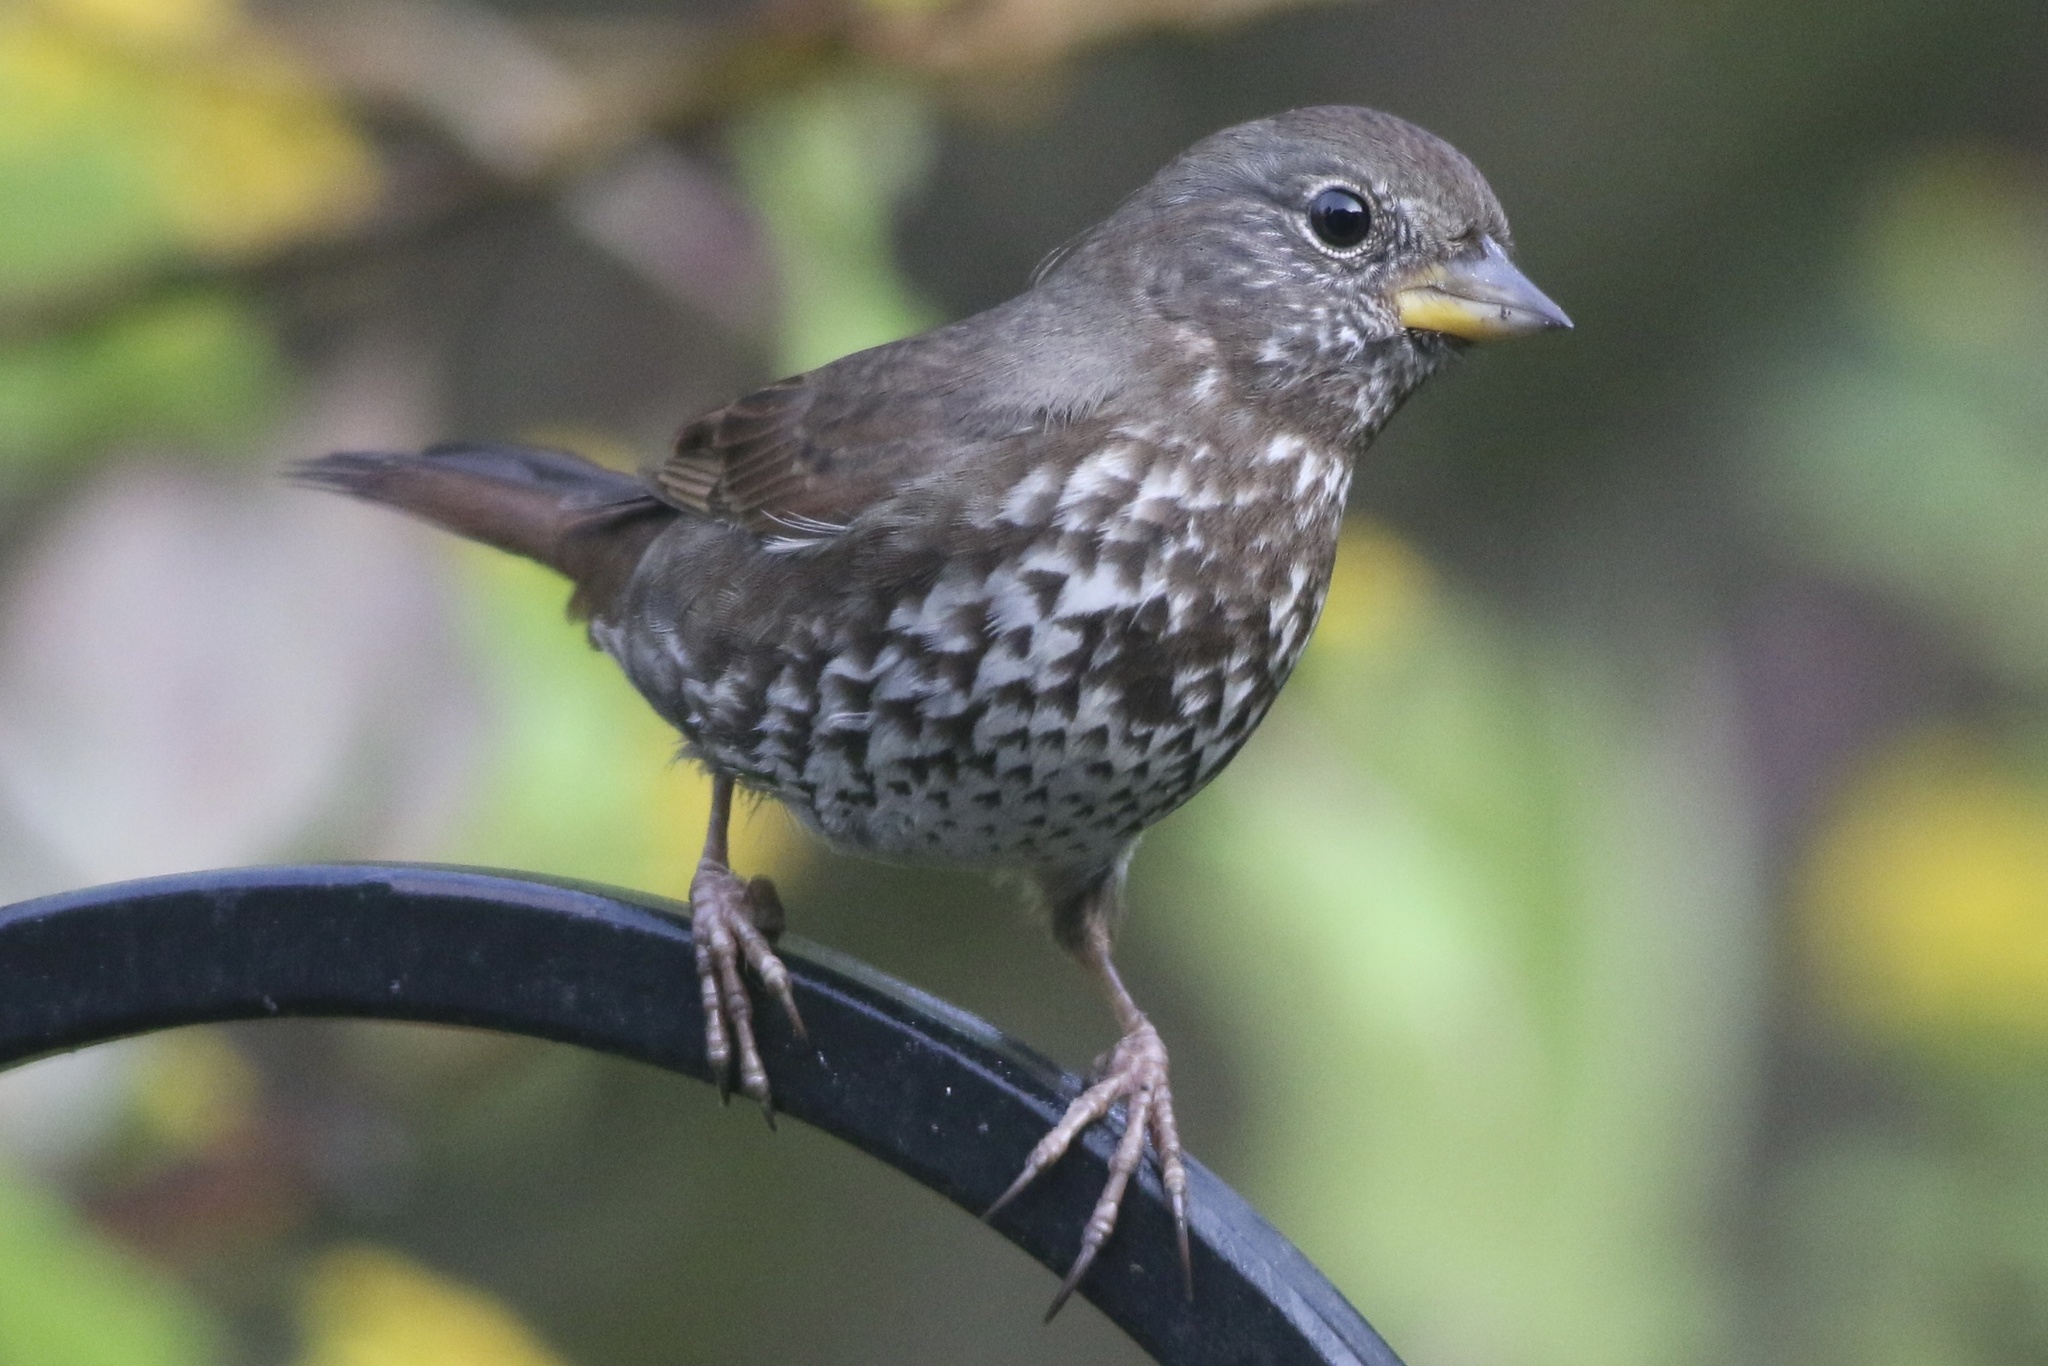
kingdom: Animalia
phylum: Chordata
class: Aves
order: Passeriformes
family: Passerellidae
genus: Passerella
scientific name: Passerella iliaca
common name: Fox sparrow
